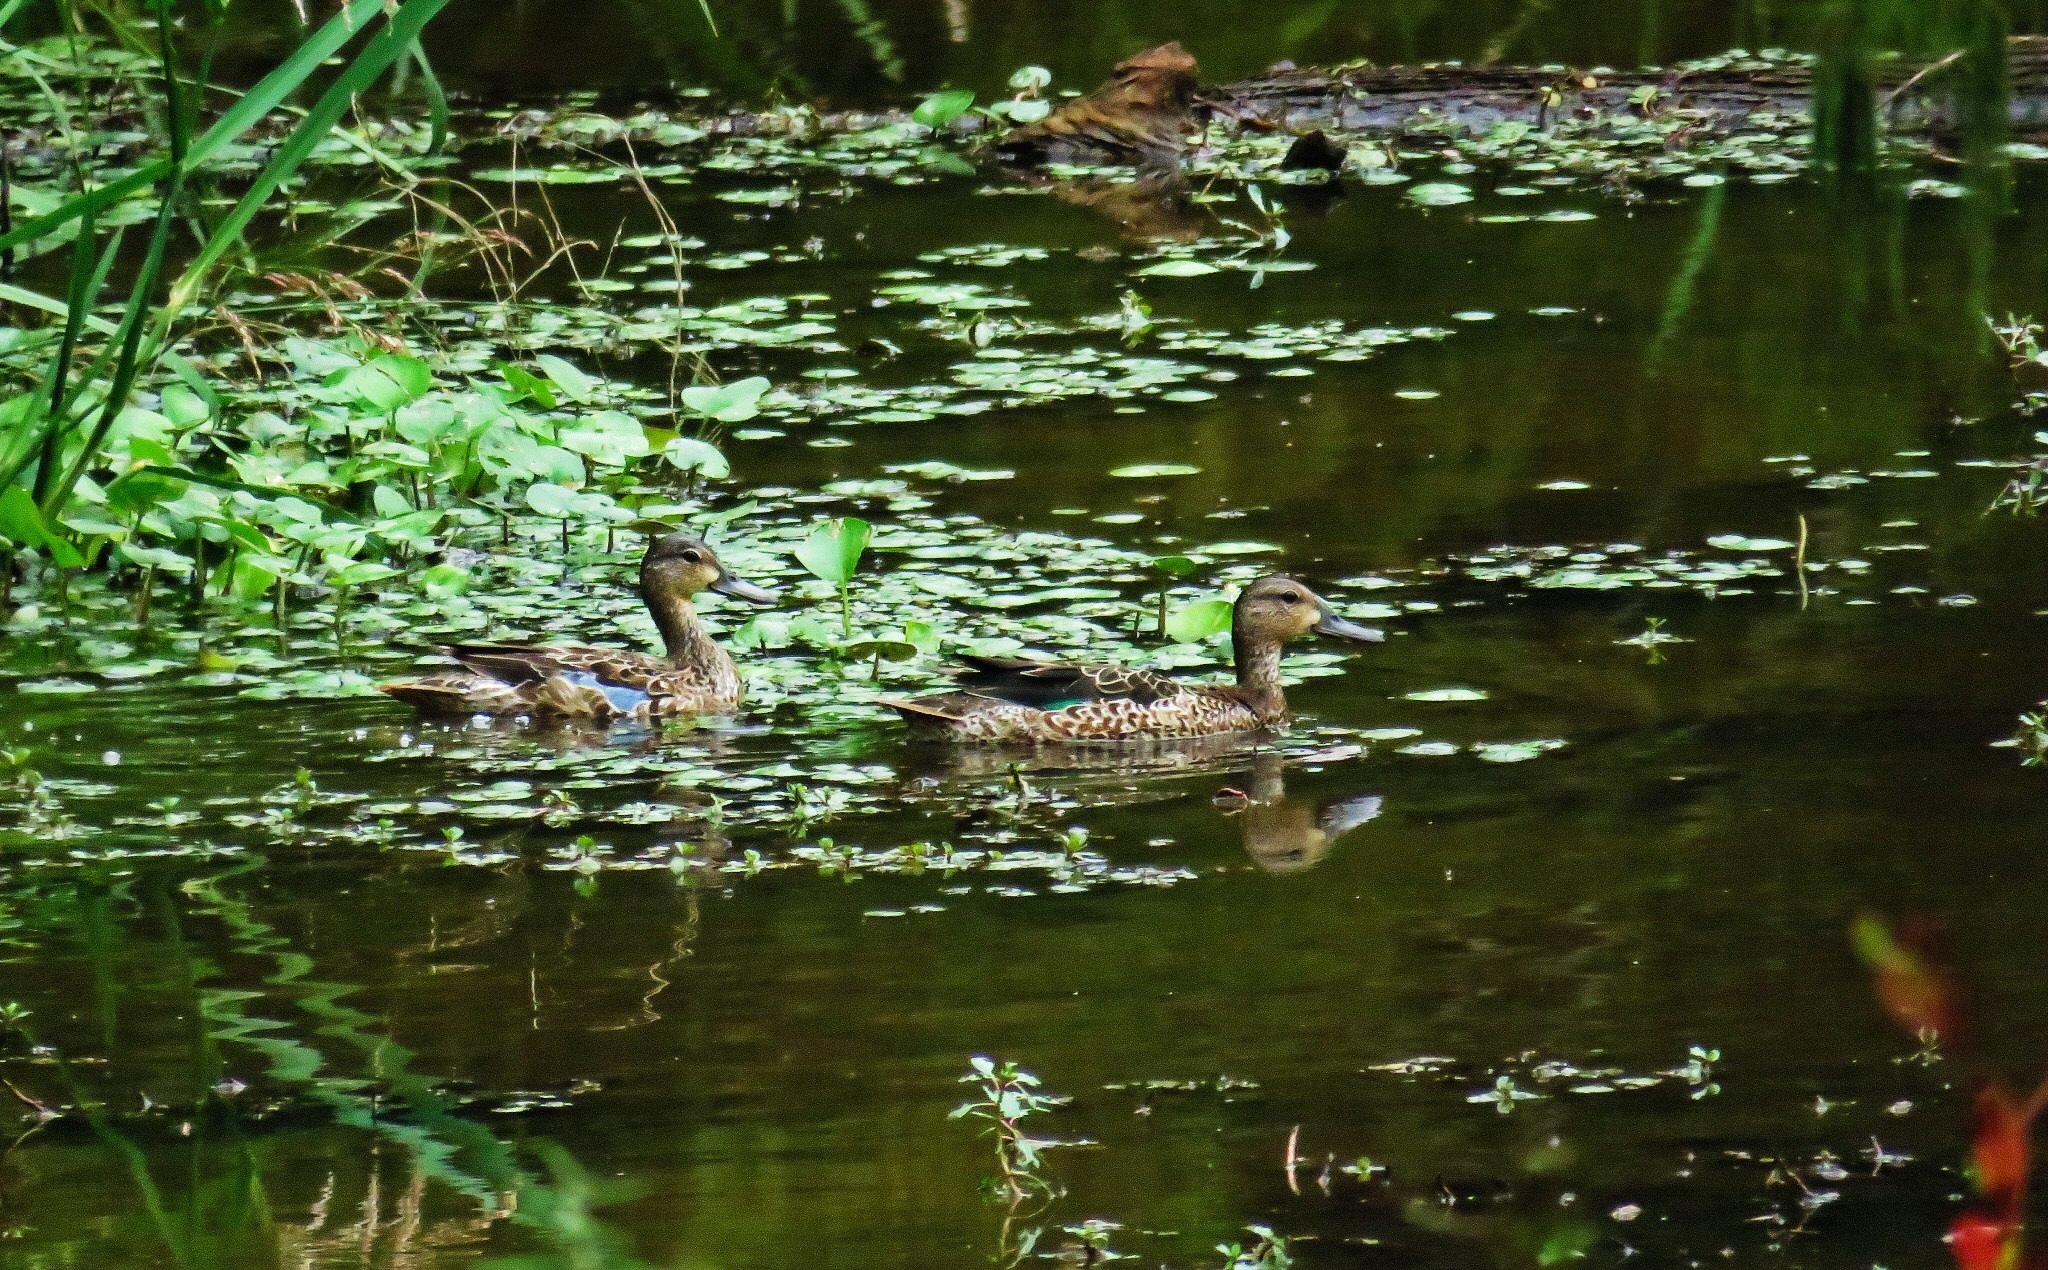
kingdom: Animalia
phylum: Chordata
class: Aves
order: Anseriformes
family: Anatidae
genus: Spatula
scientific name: Spatula discors
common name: Blue-winged teal
